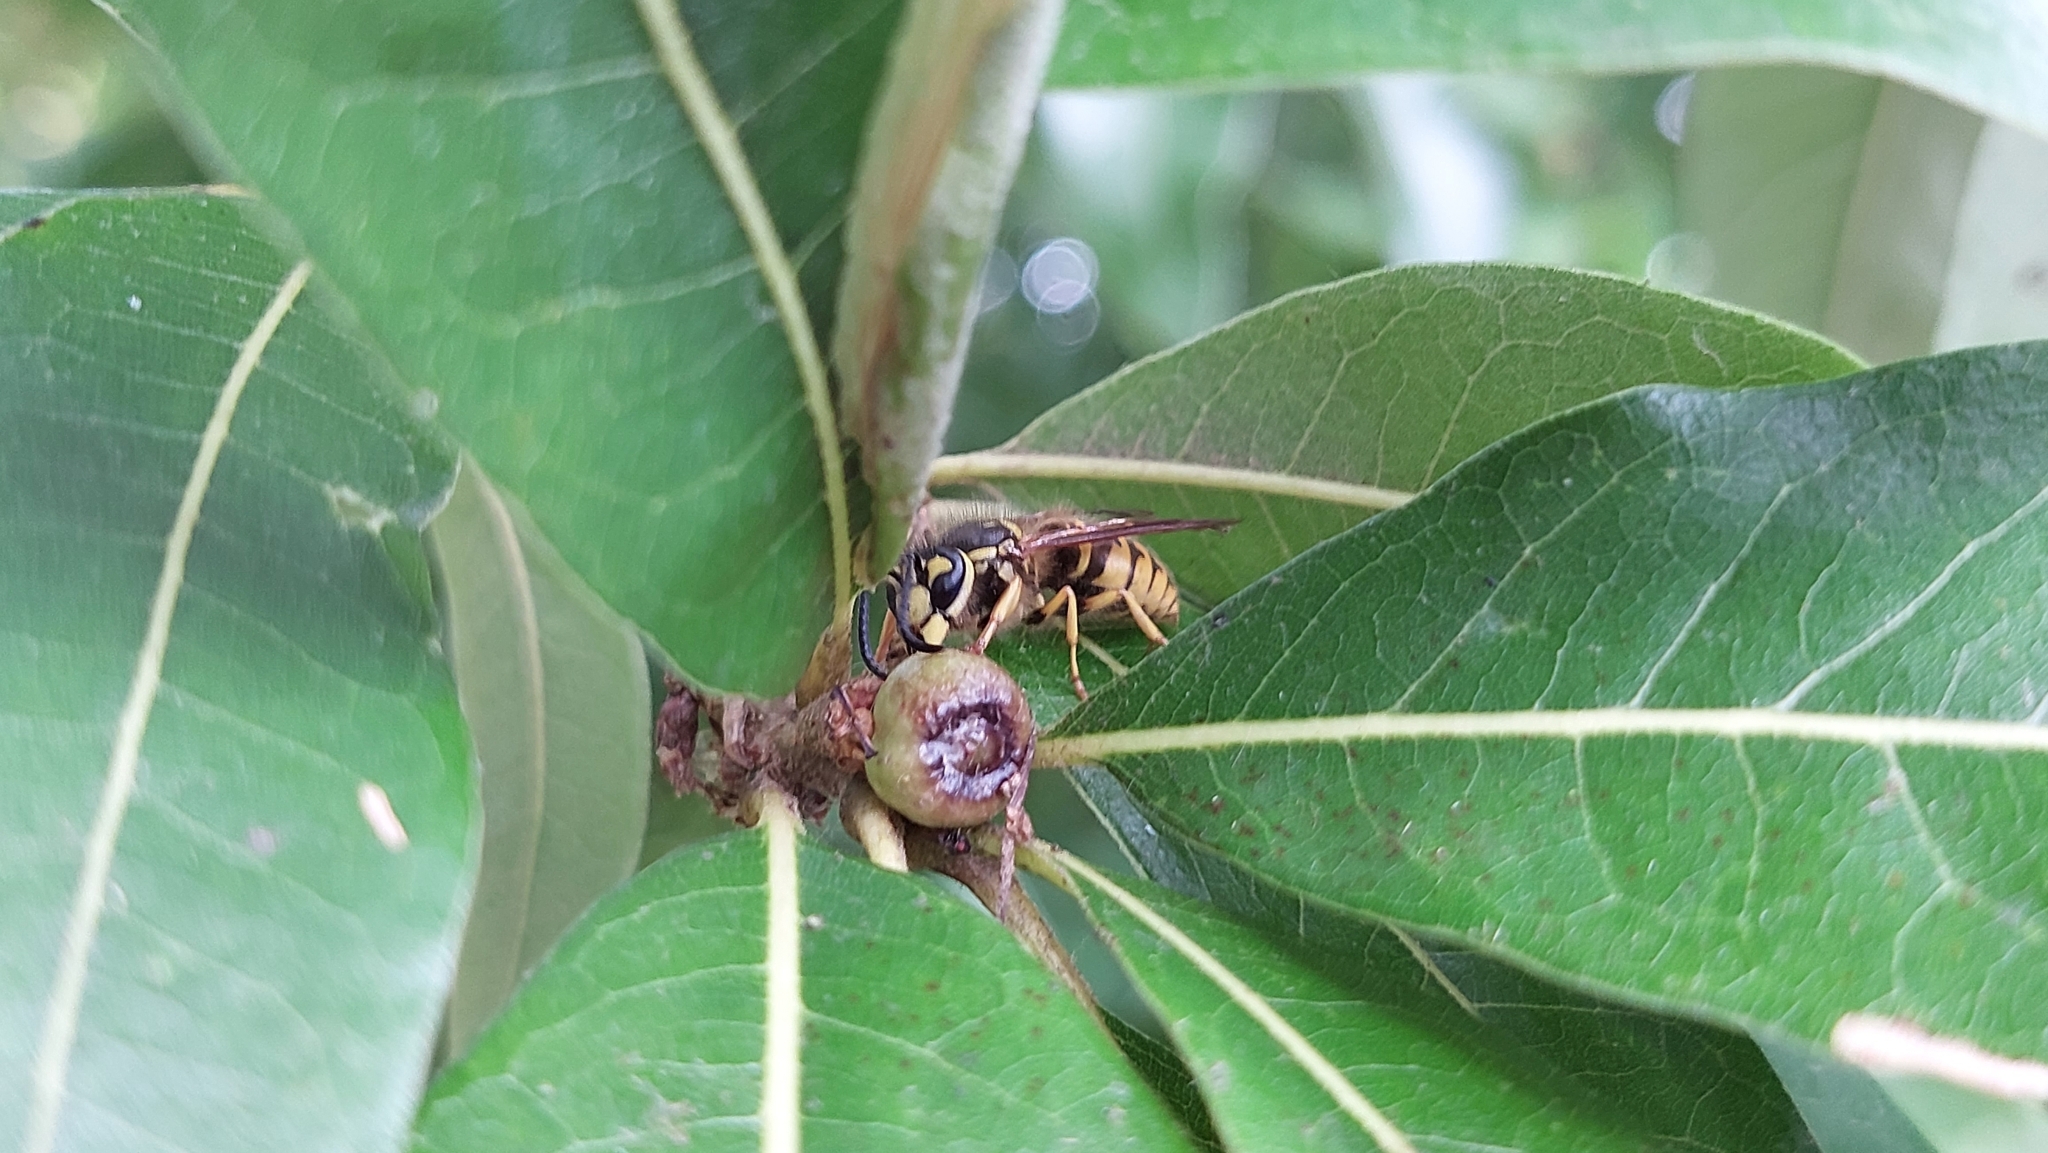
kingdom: Animalia
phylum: Arthropoda
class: Insecta
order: Hymenoptera
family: Vespidae
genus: Vespula
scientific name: Vespula
